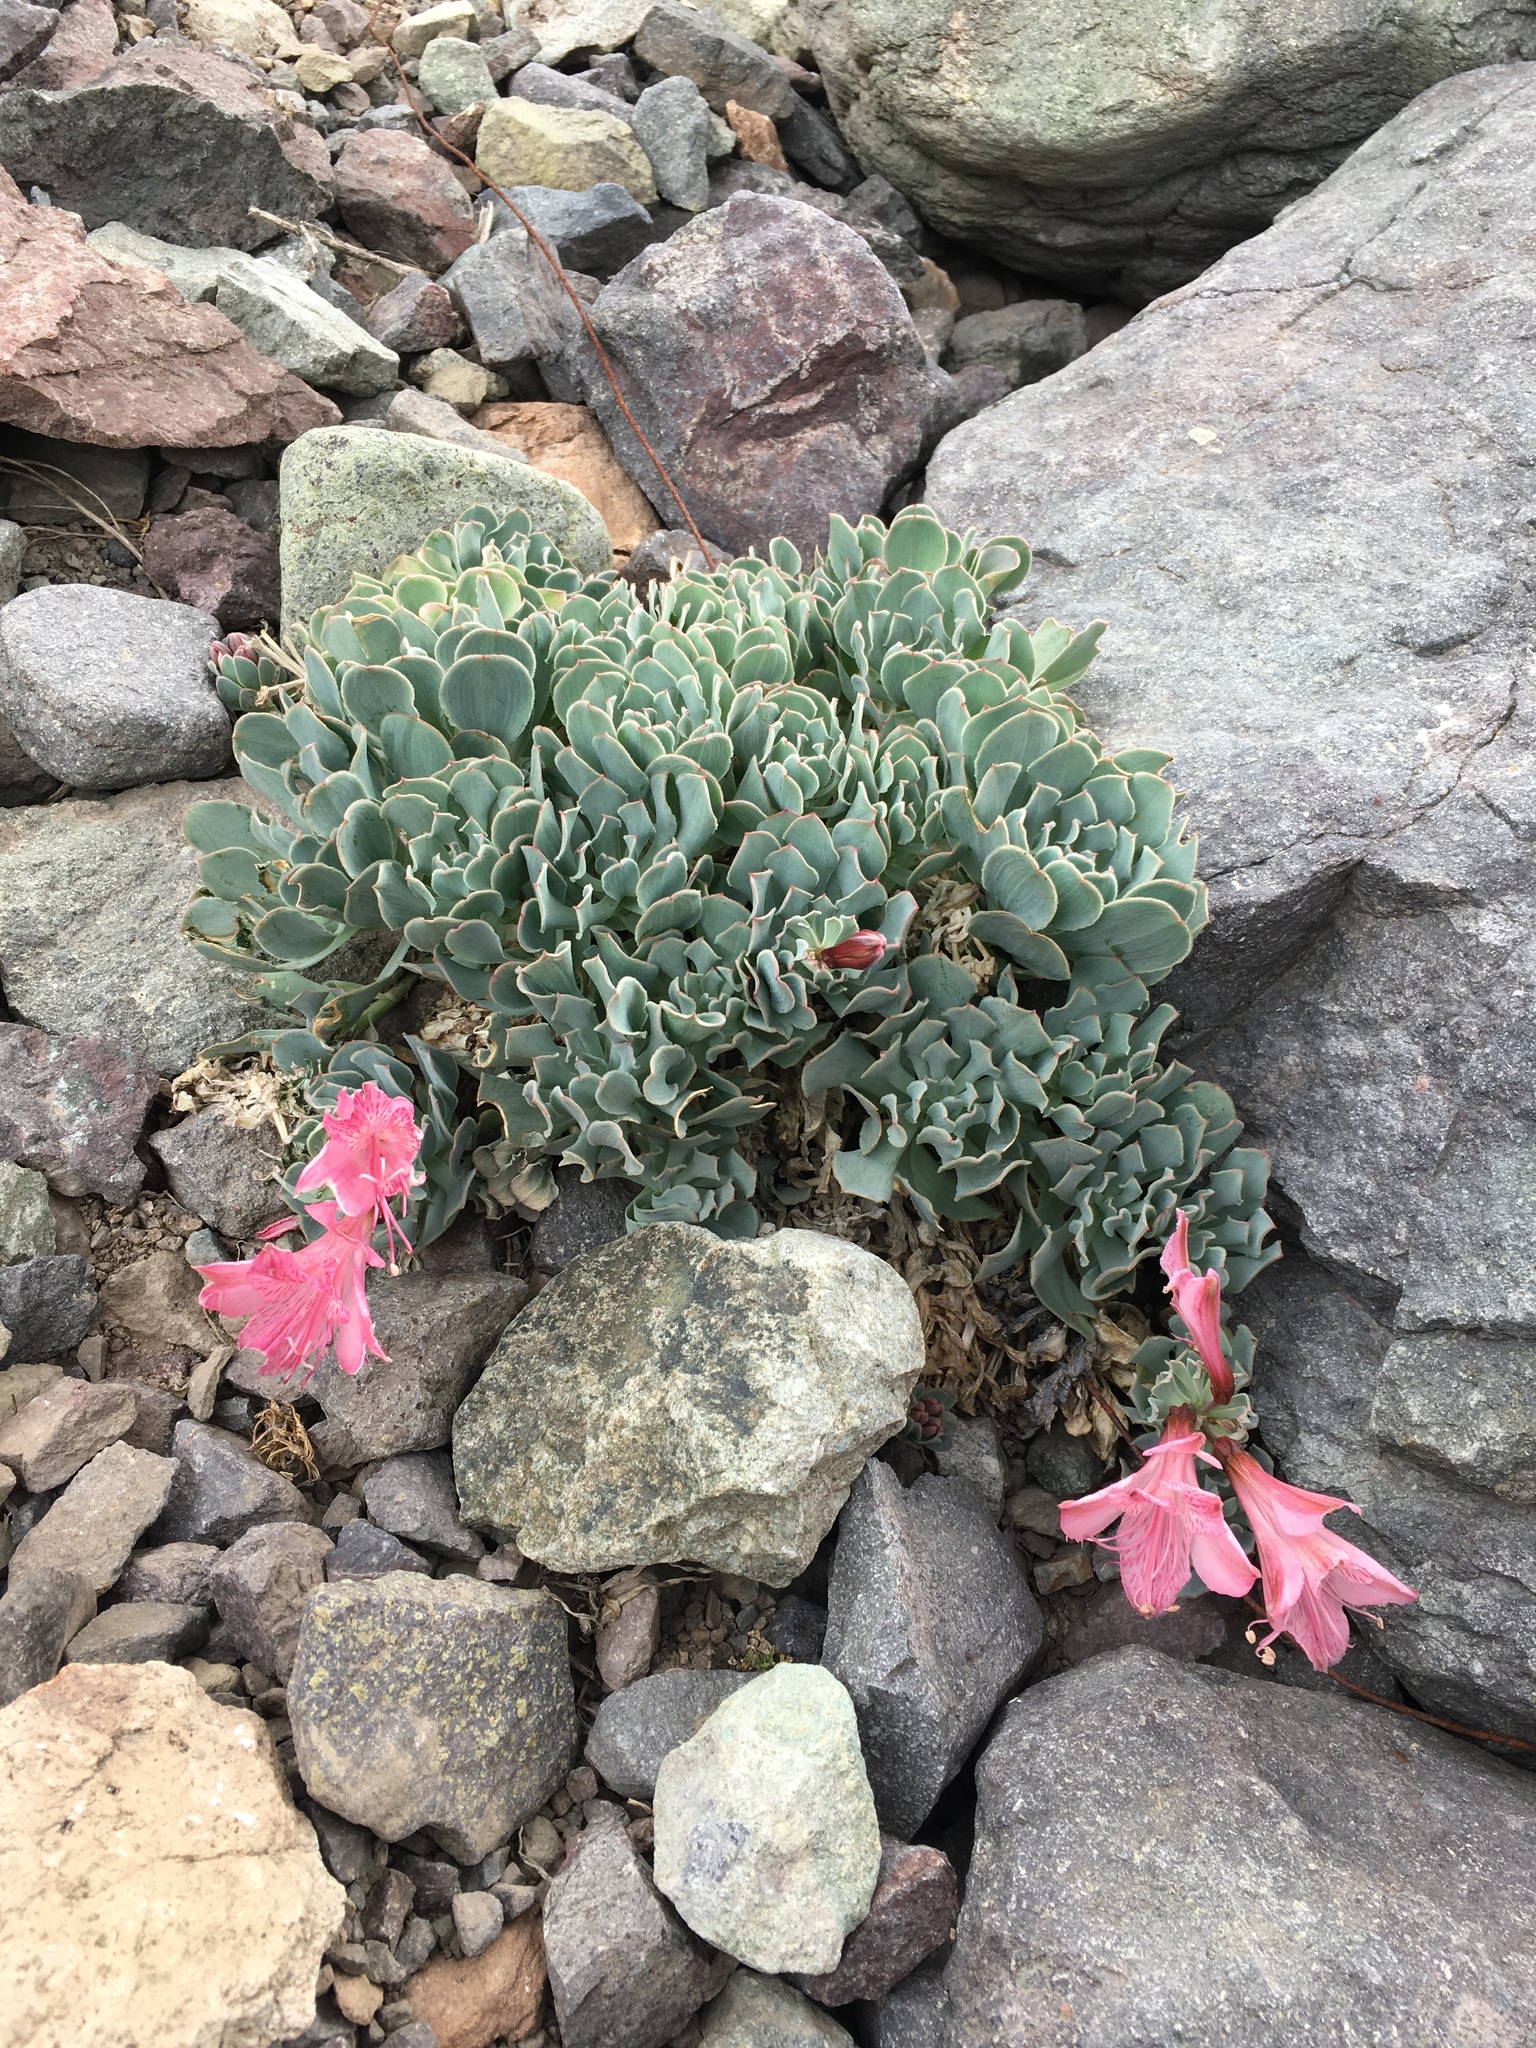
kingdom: Plantae
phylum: Tracheophyta
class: Liliopsida
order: Liliales
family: Alstroemeriaceae
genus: Alstroemeria
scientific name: Alstroemeria spathulata
